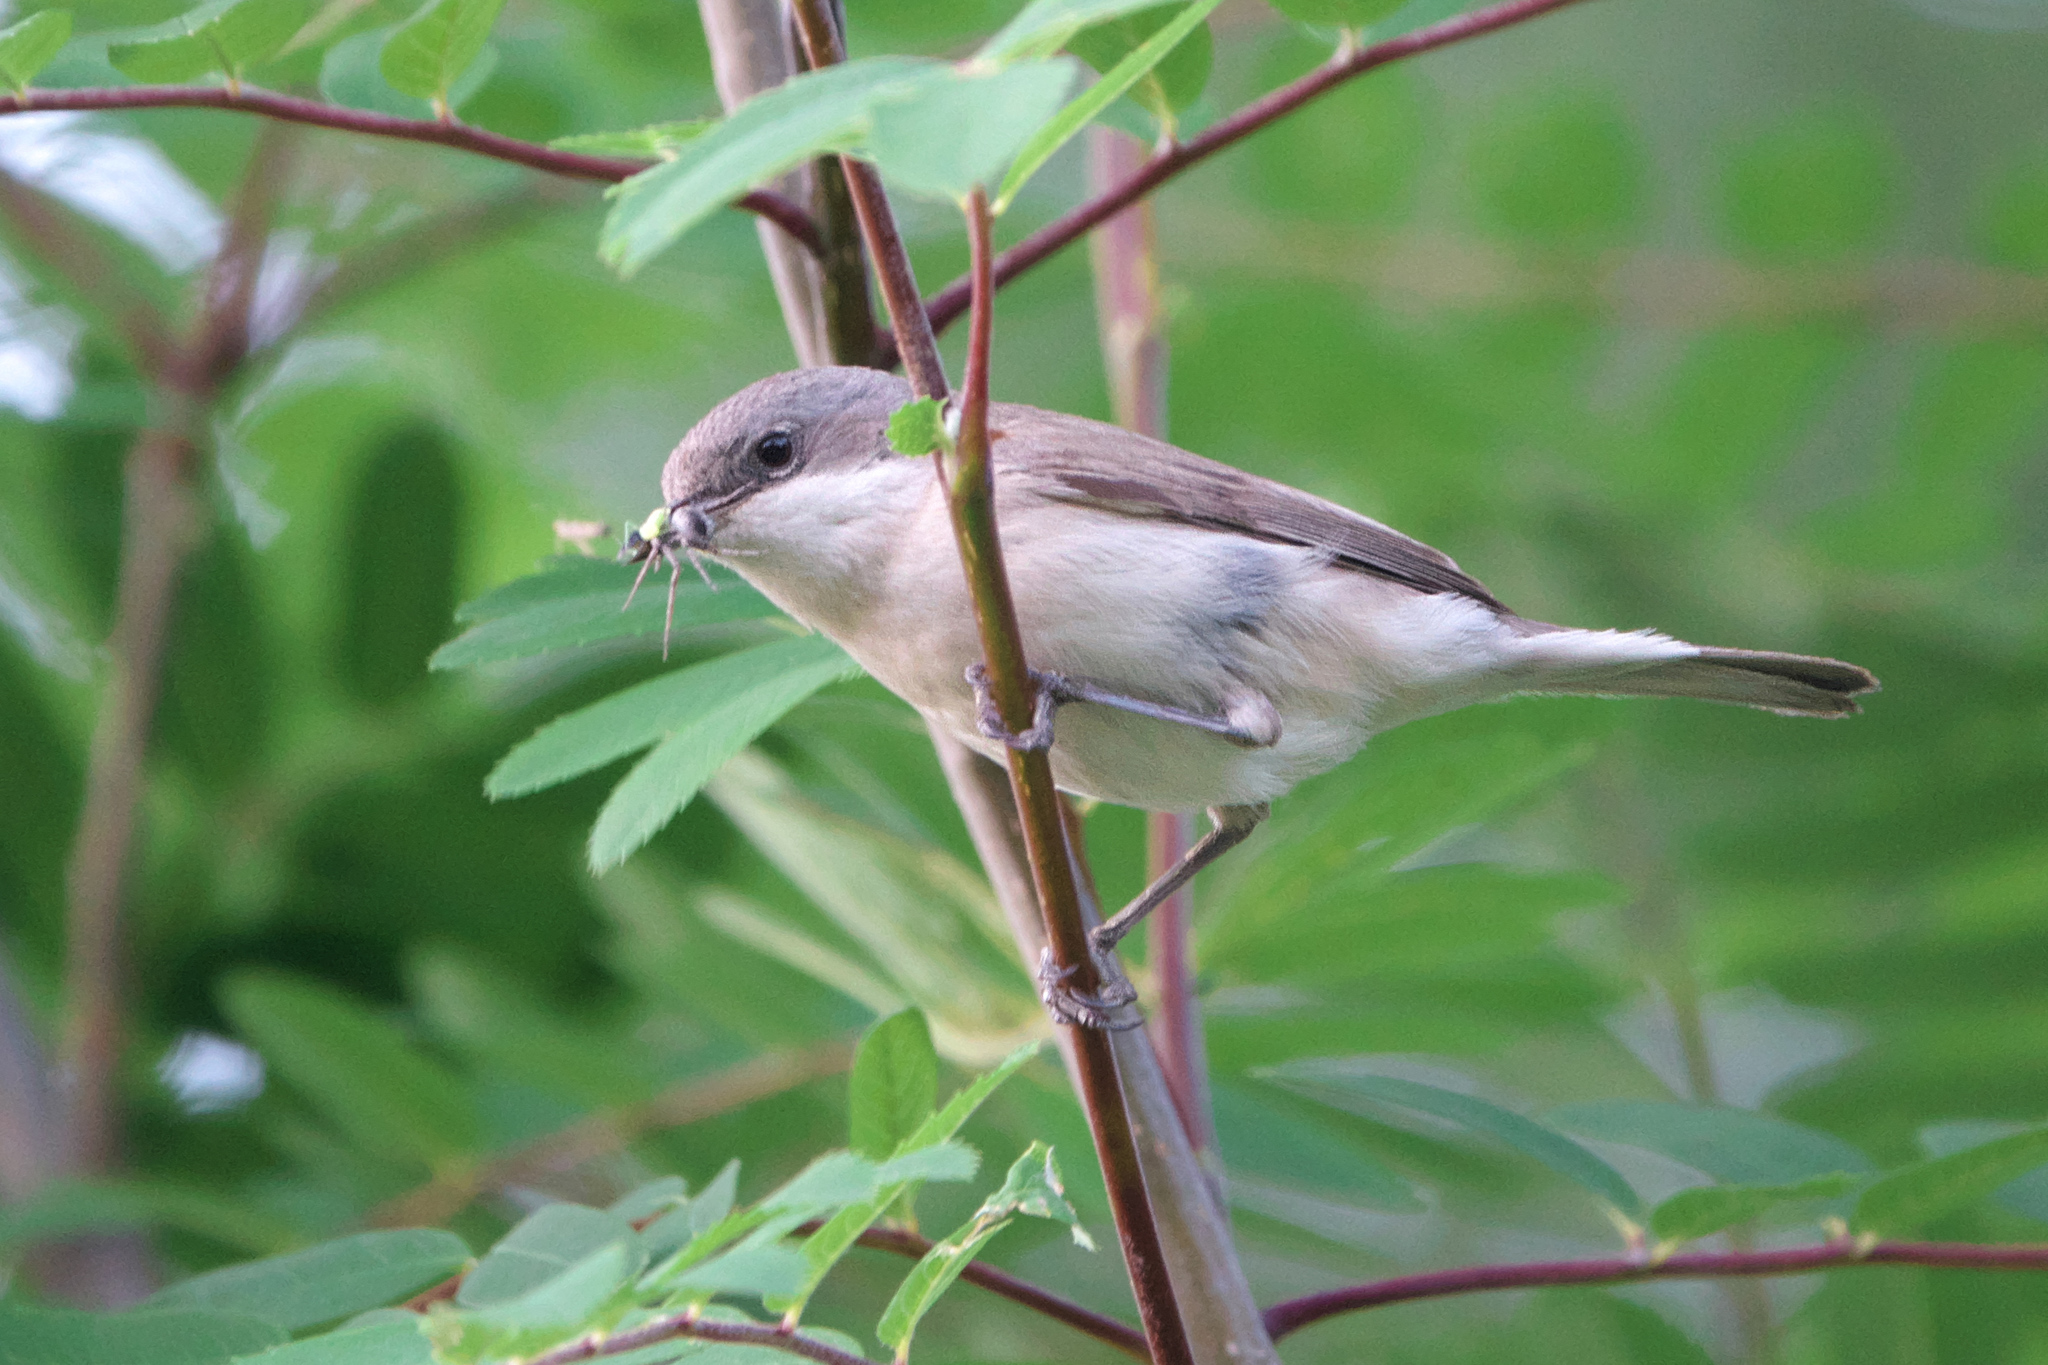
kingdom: Animalia
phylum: Chordata
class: Aves
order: Passeriformes
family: Sylviidae
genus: Sylvia
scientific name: Sylvia curruca
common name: Lesser whitethroat
